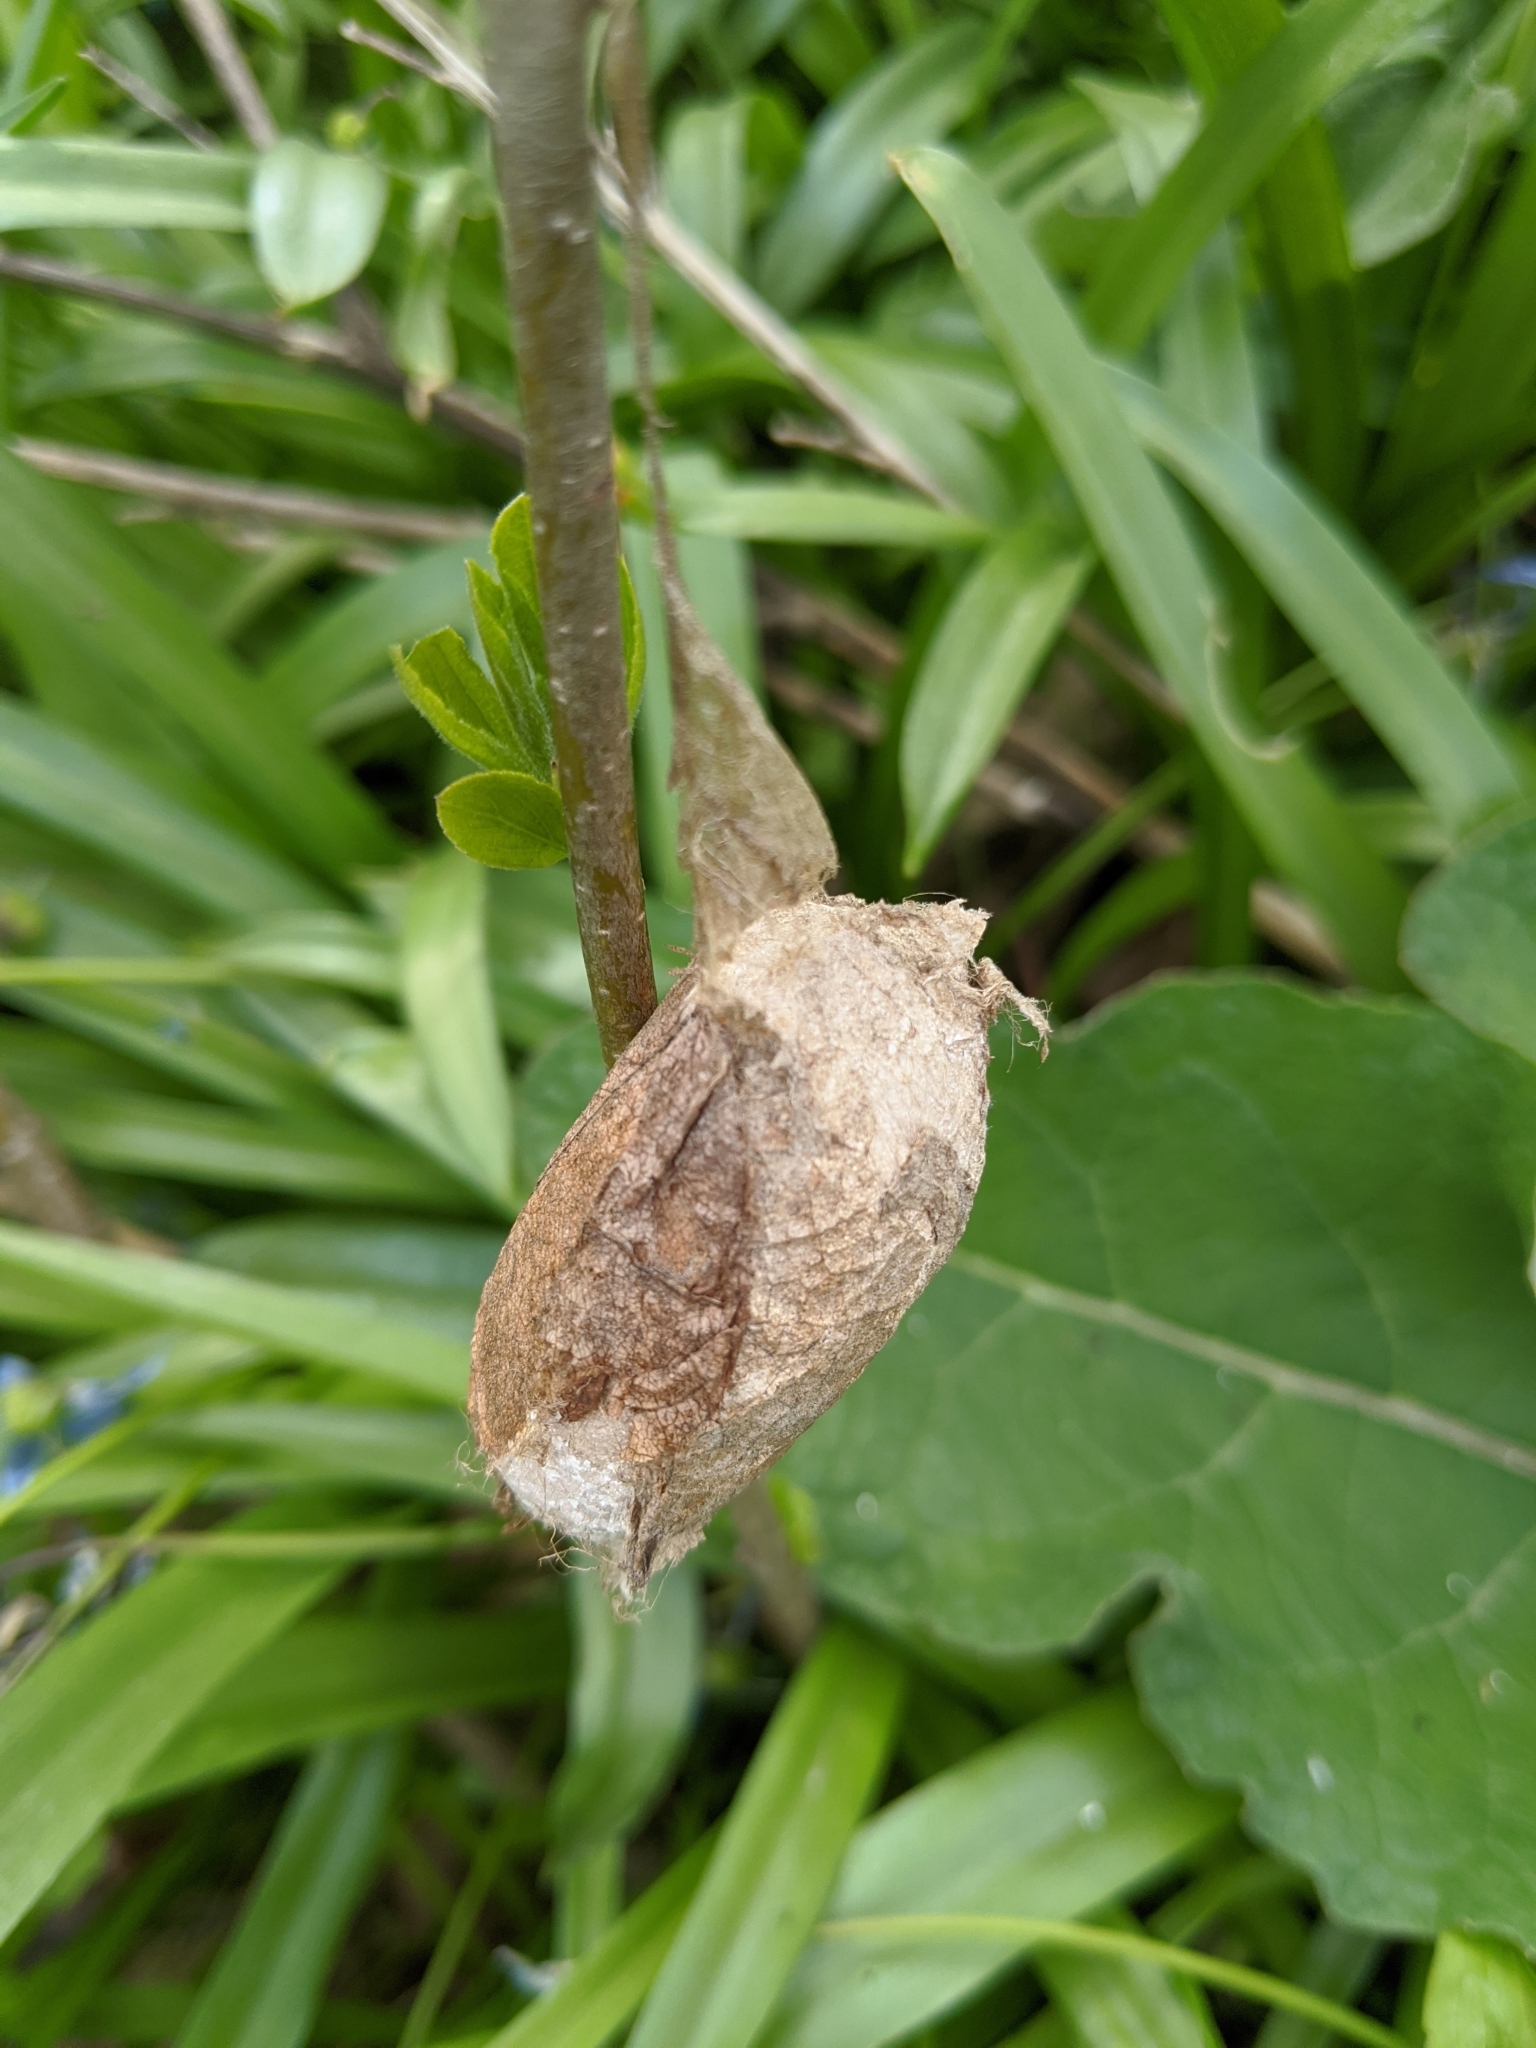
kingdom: Animalia
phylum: Arthropoda
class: Insecta
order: Lepidoptera
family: Saturniidae
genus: Antheraea
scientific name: Antheraea polyphemus
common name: Polyphemus moth
